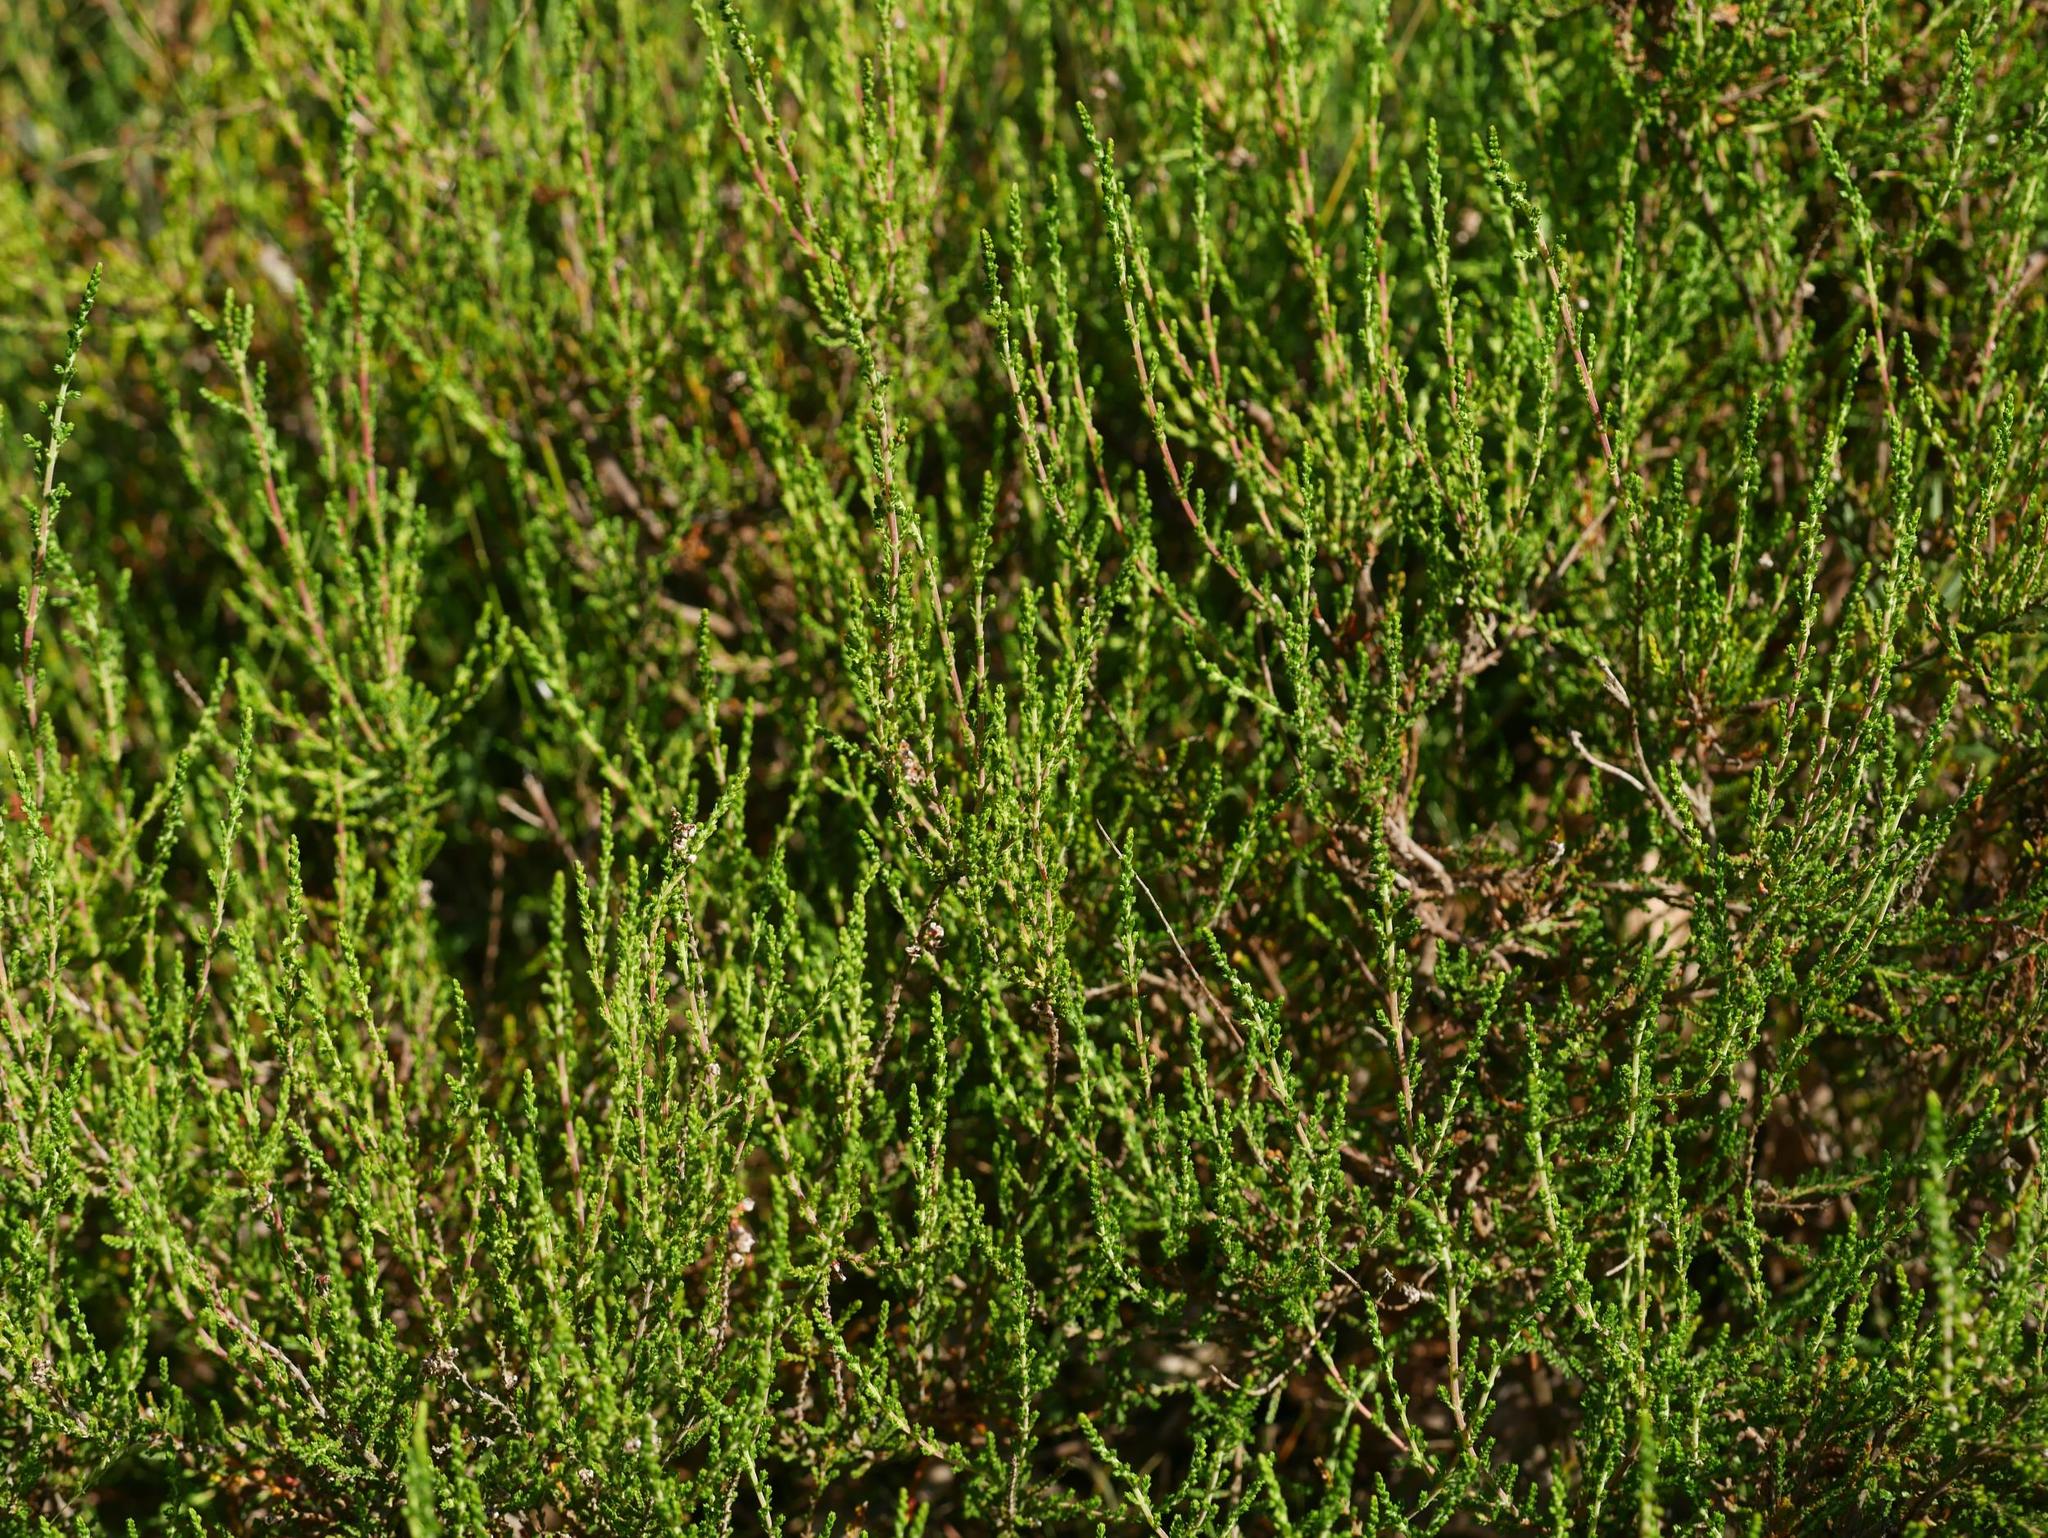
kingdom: Plantae
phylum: Tracheophyta
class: Magnoliopsida
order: Ericales
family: Ericaceae
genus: Calluna
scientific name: Calluna vulgaris
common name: Heather
